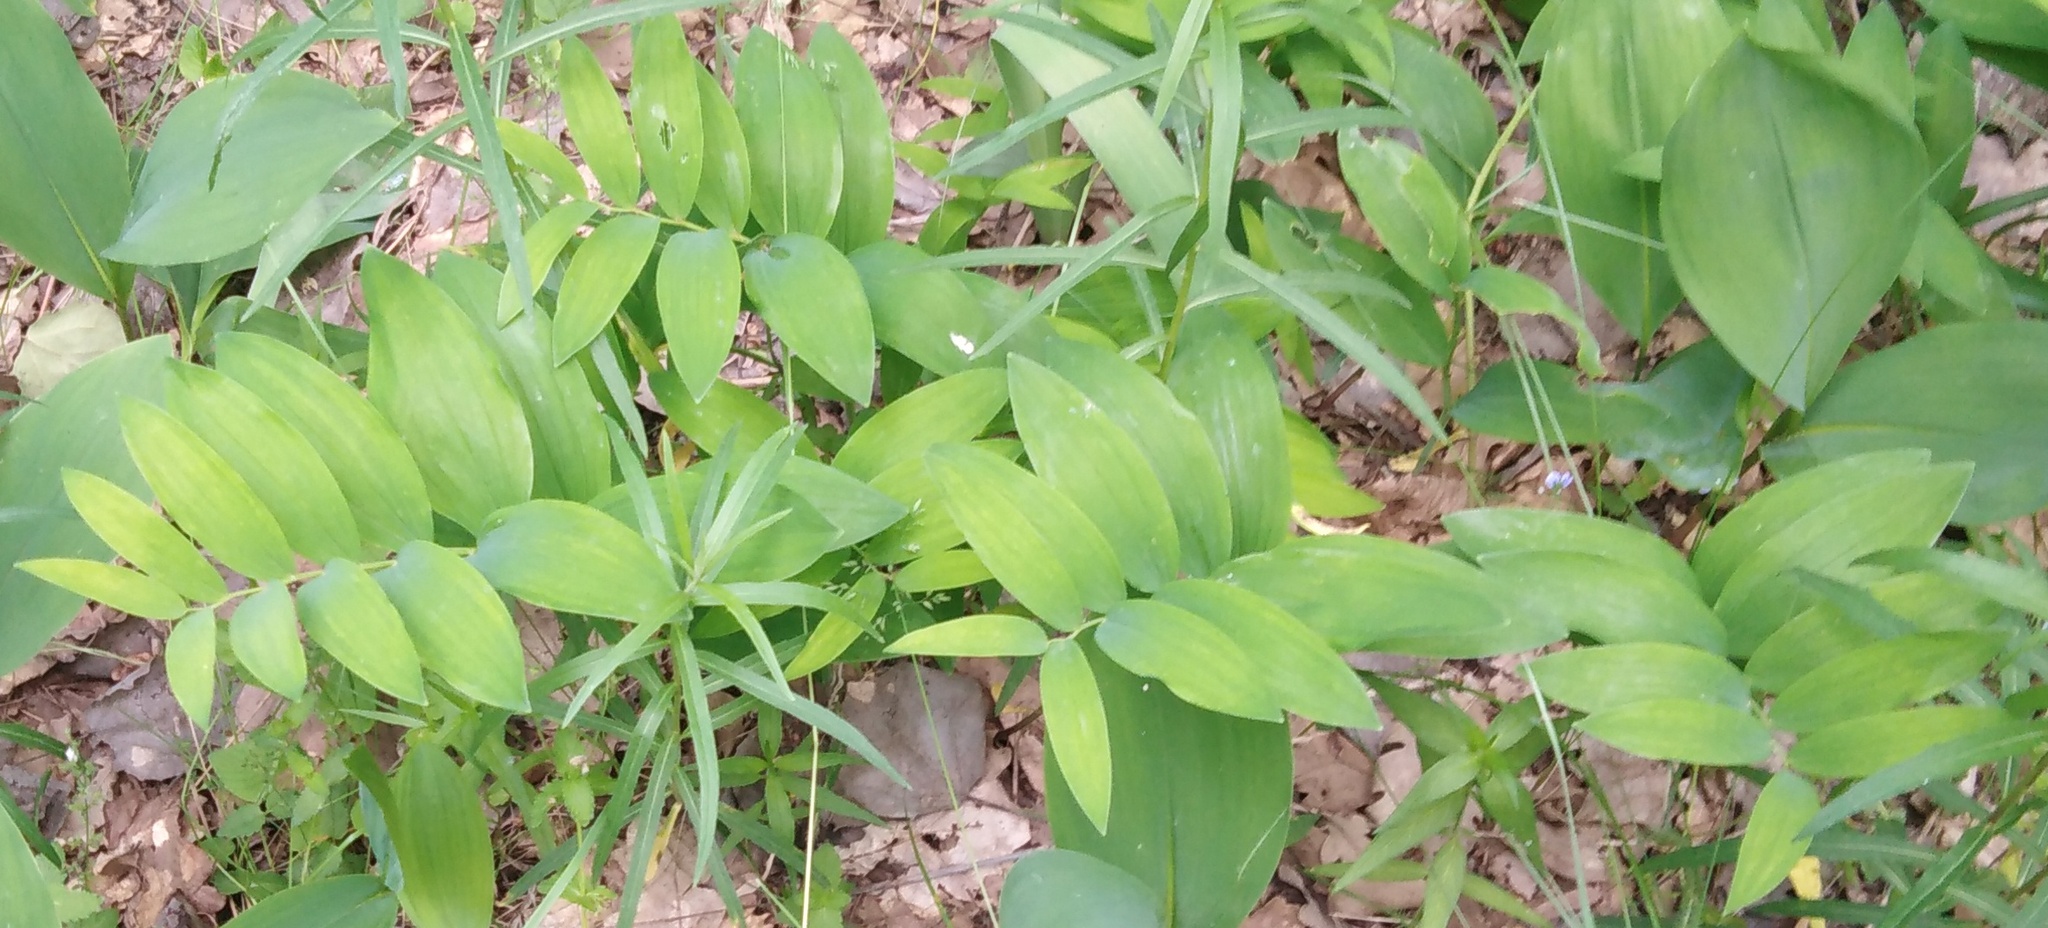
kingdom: Plantae
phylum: Tracheophyta
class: Liliopsida
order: Asparagales
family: Asparagaceae
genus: Polygonatum
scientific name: Polygonatum multiflorum
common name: Solomon's-seal
